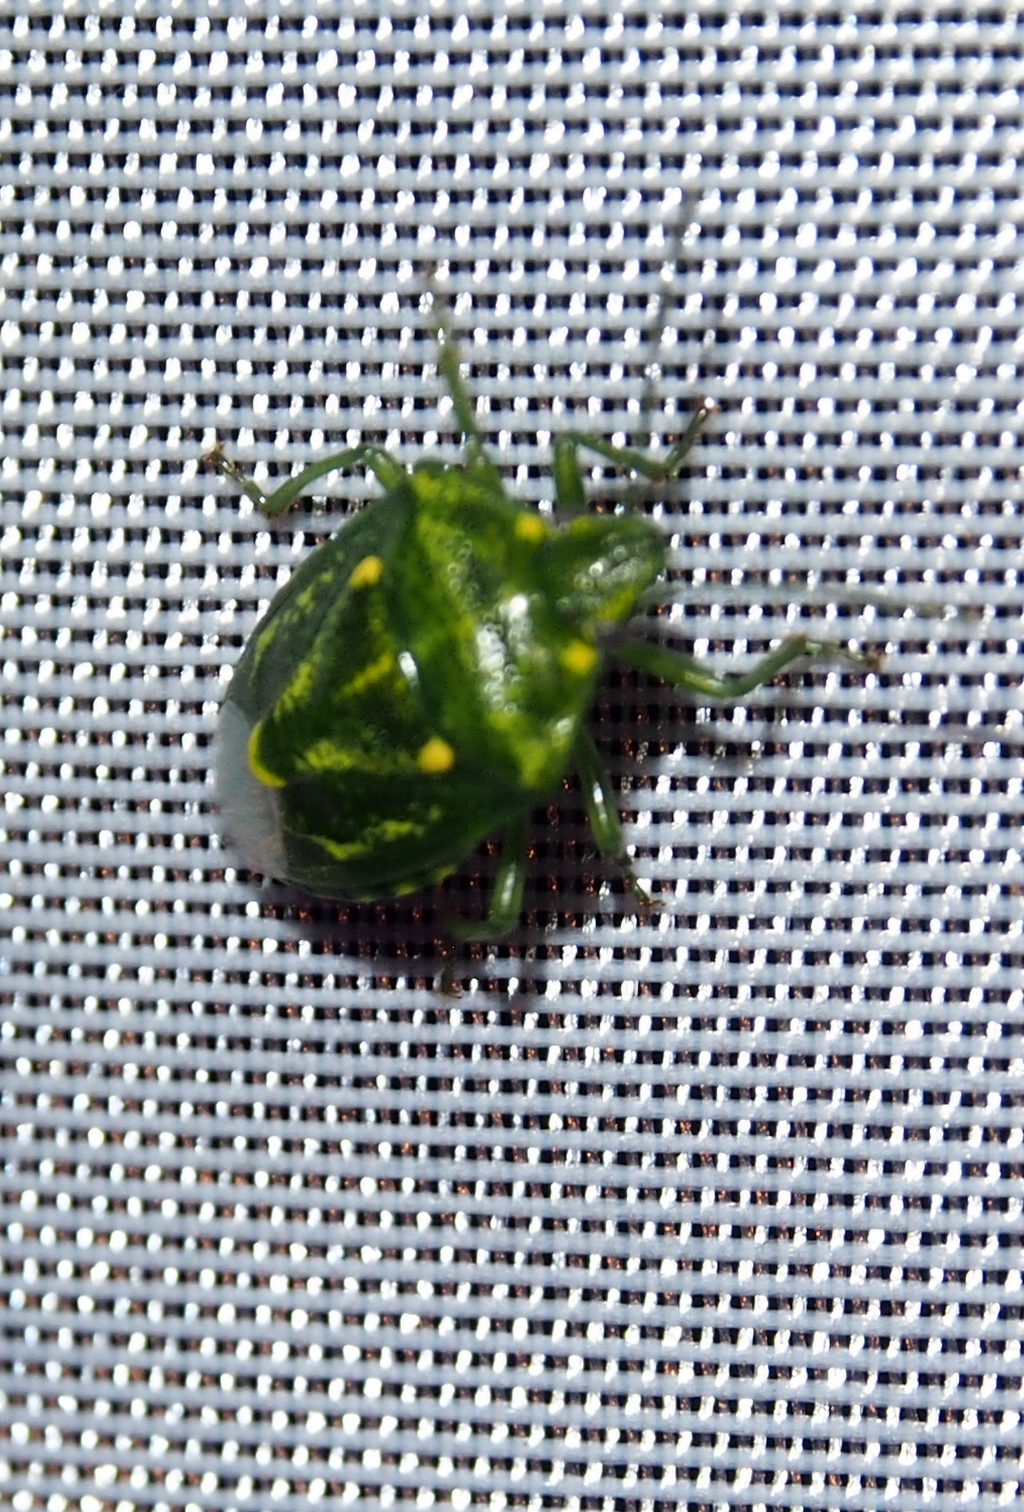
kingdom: Animalia
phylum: Arthropoda
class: Insecta
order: Hemiptera
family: Pentatomidae
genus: Banasa
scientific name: Banasa euchlora
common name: Cedar berry bug
